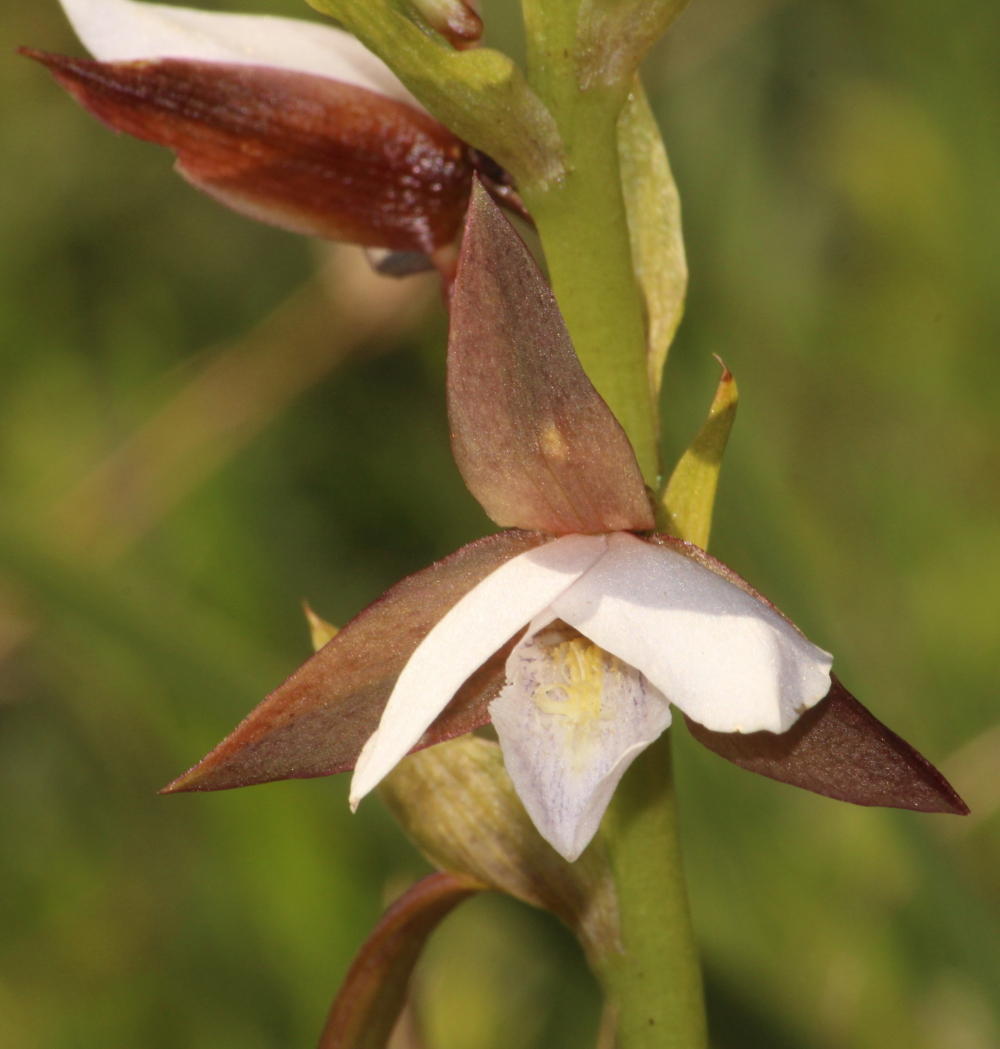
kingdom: Plantae
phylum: Tracheophyta
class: Liliopsida
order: Asparagales
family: Orchidaceae
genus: Eulophia
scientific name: Eulophia ovalis
